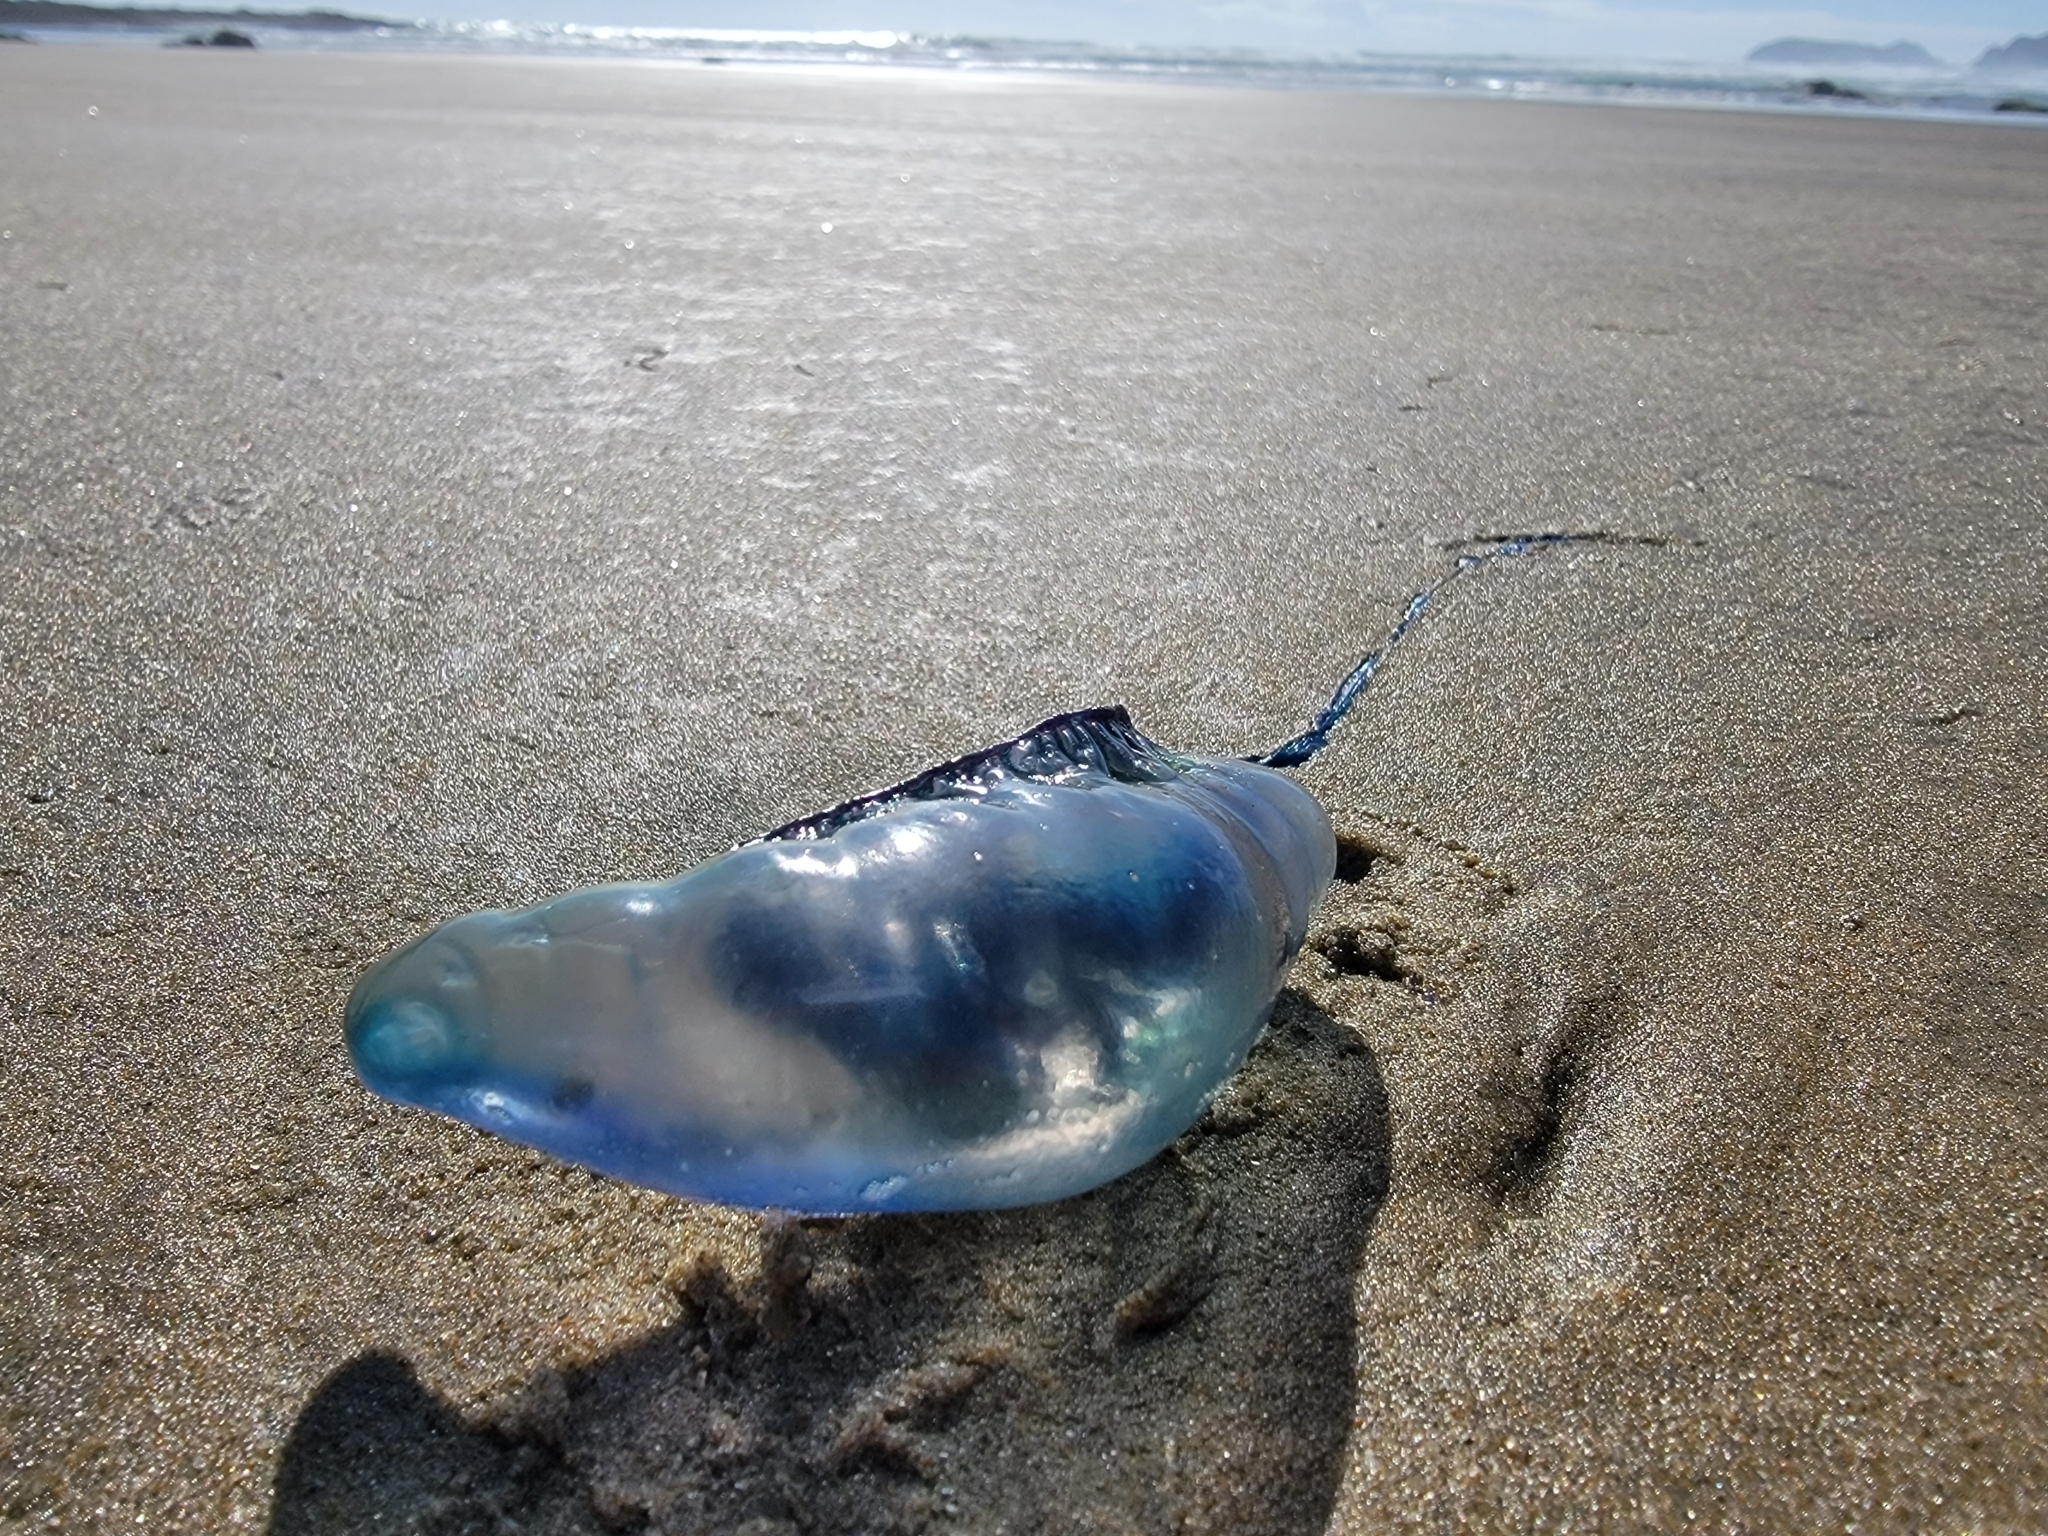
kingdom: Animalia
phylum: Cnidaria
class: Hydrozoa
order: Siphonophorae
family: Physaliidae
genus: Physalia
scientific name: Physalia physalis
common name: Portuguese man-of-war
